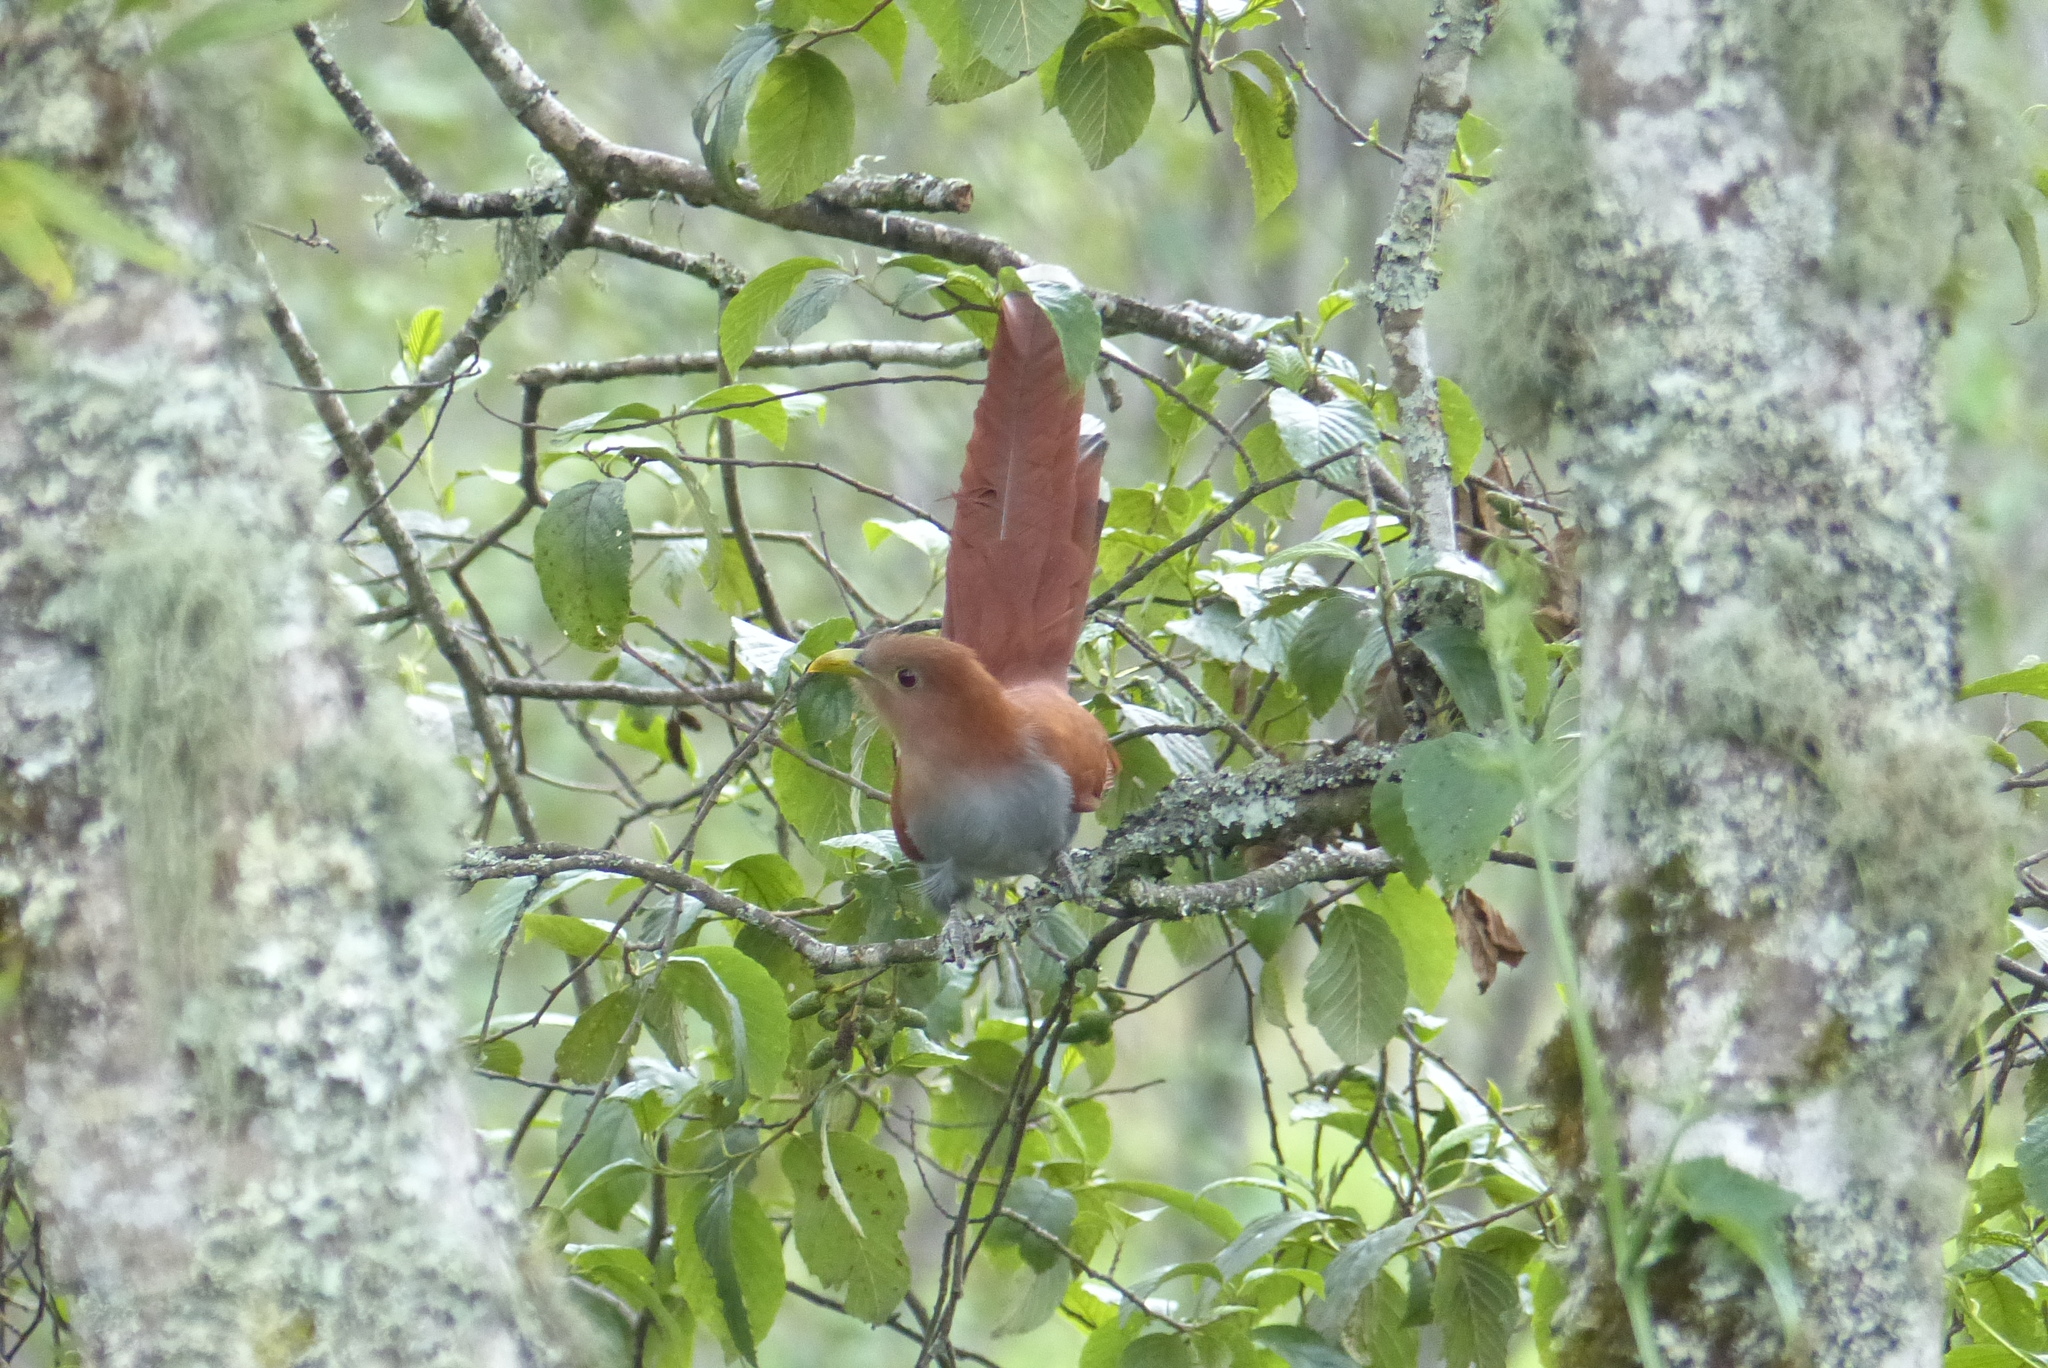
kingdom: Animalia
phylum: Chordata
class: Aves
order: Cuculiformes
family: Cuculidae
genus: Piaya
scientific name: Piaya cayana
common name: Squirrel cuckoo
